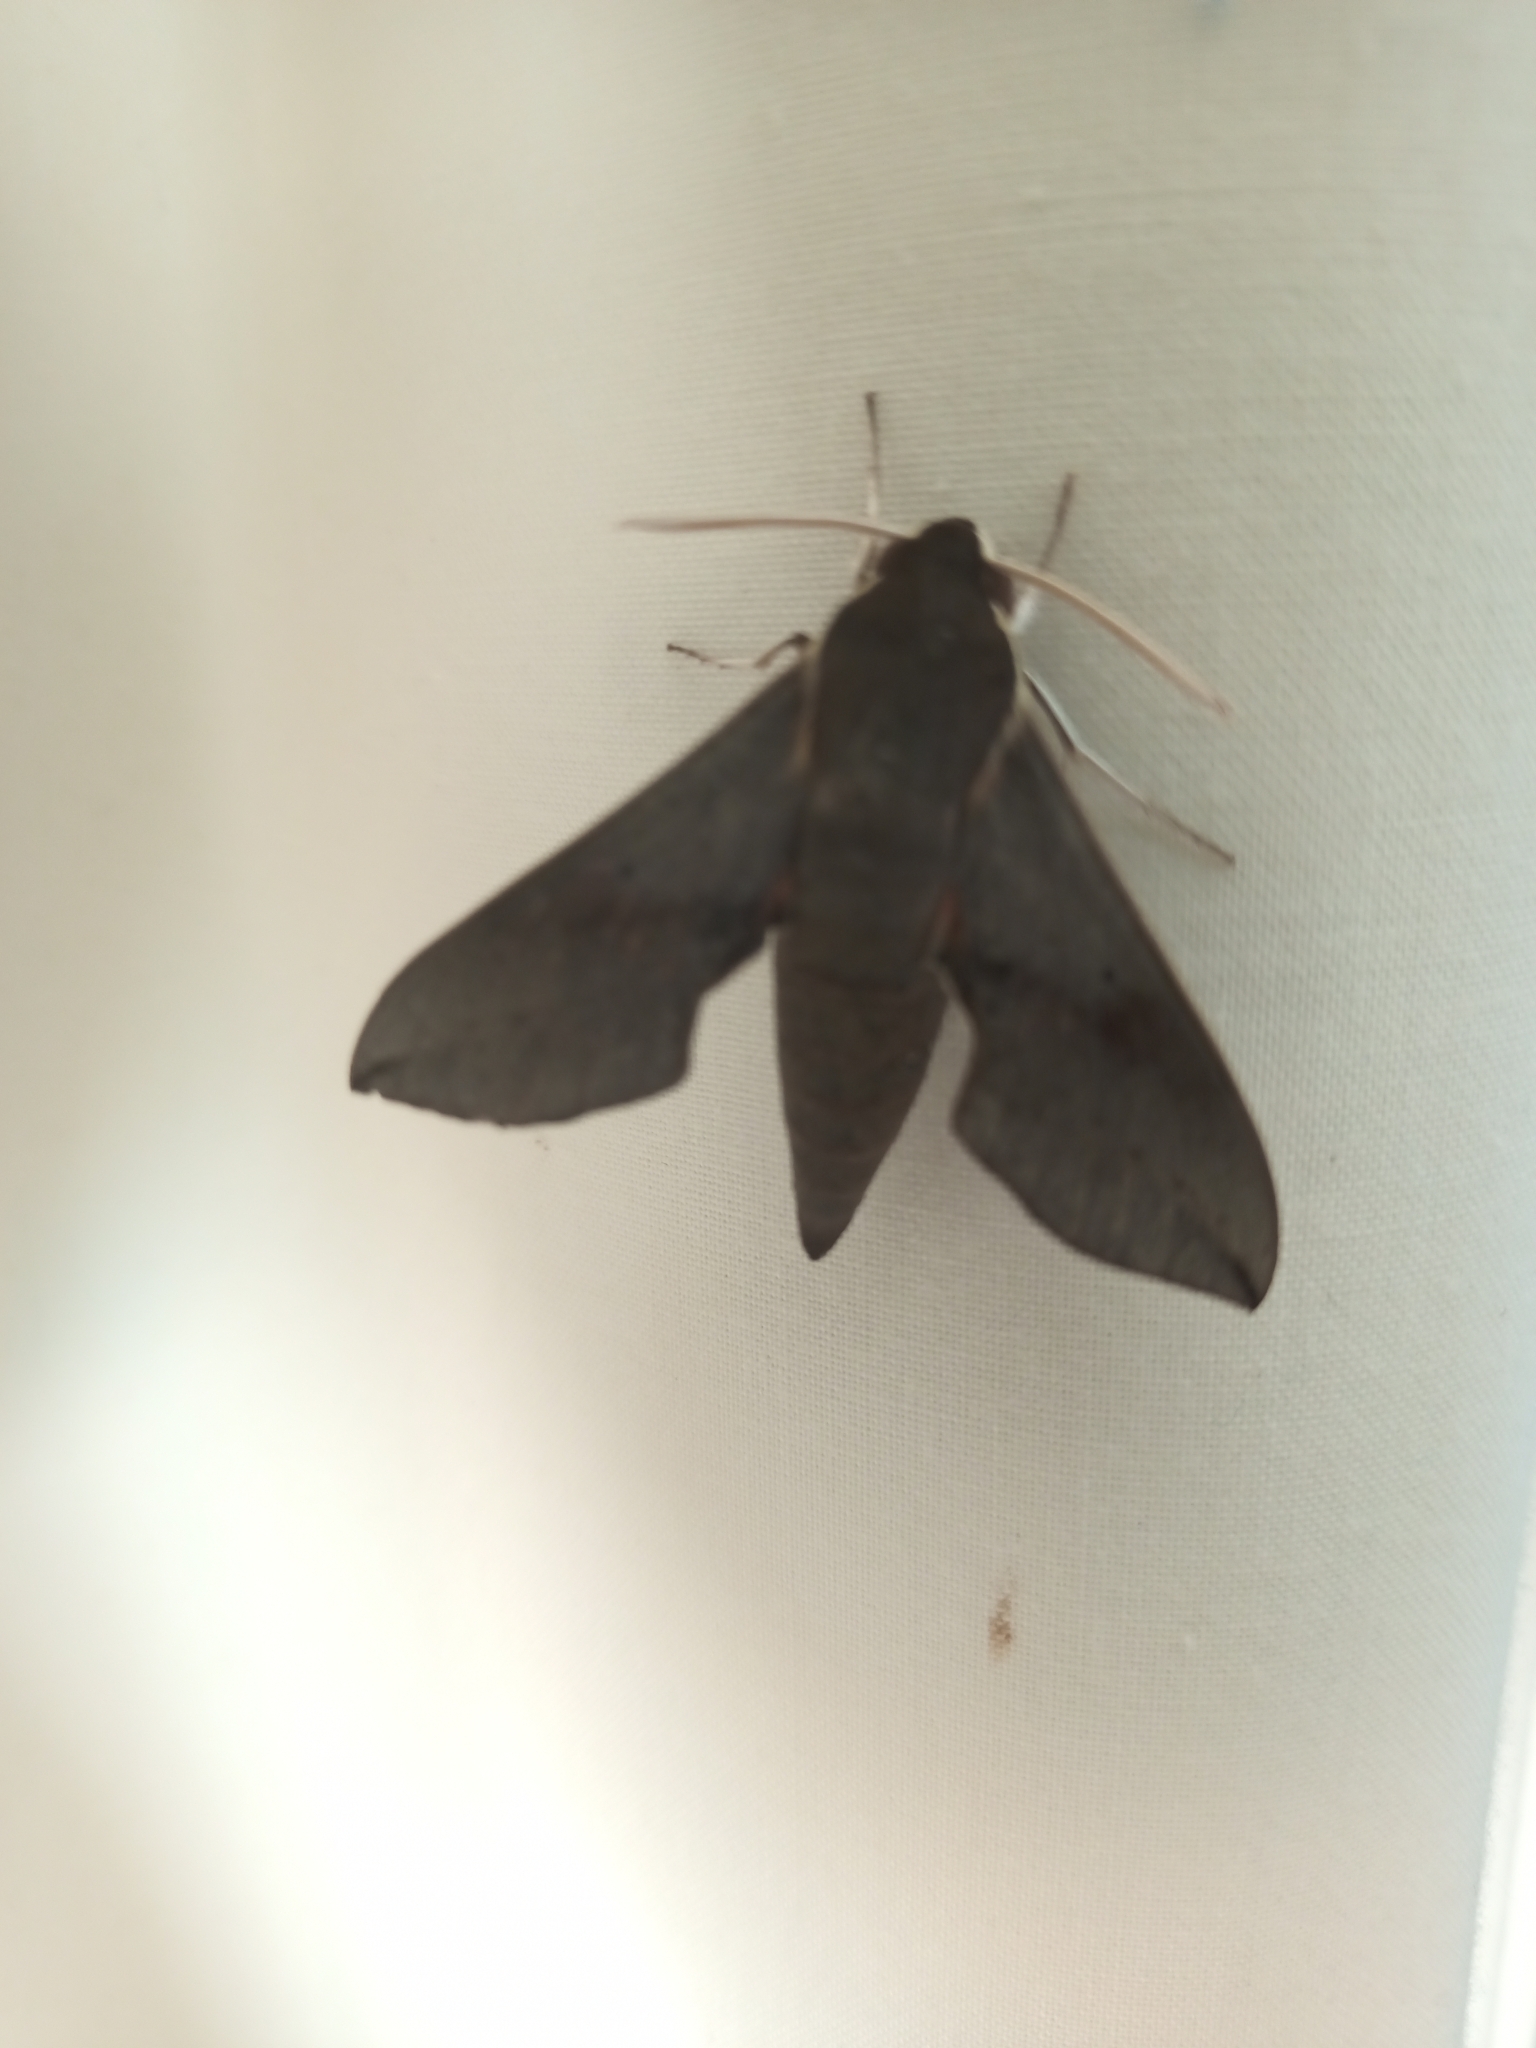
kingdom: Animalia
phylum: Arthropoda
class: Insecta
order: Lepidoptera
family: Sphingidae
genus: Hippotion
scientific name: Hippotion scrofa
